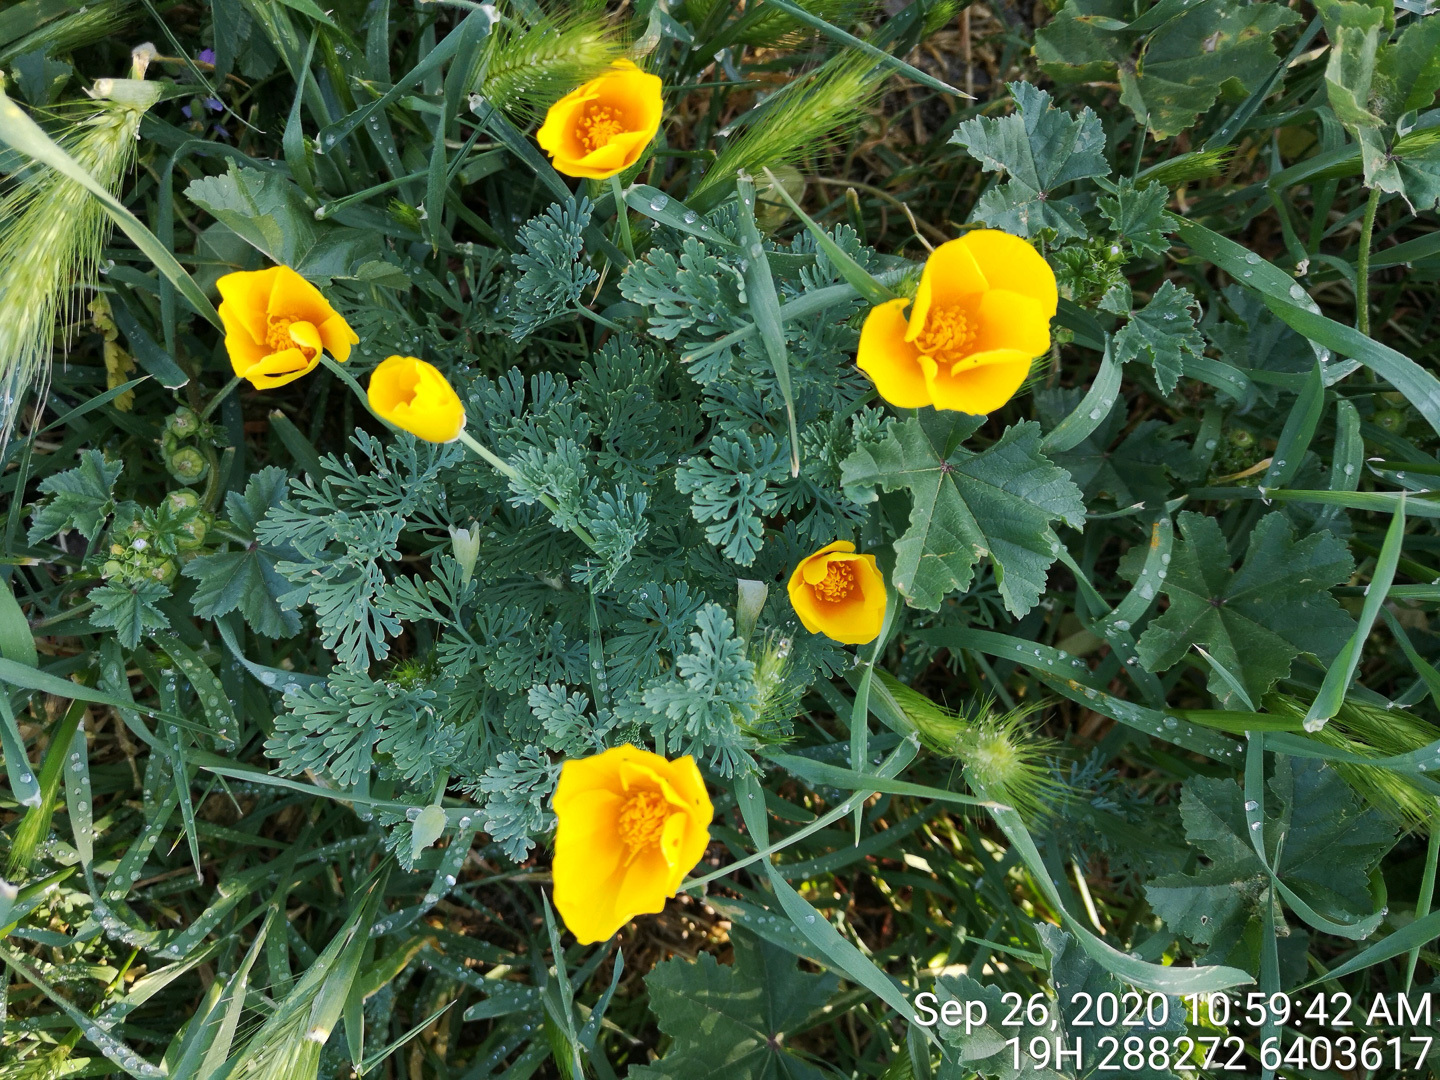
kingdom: Plantae
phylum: Tracheophyta
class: Magnoliopsida
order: Ranunculales
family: Papaveraceae
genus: Eschscholzia
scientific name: Eschscholzia californica
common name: California poppy
